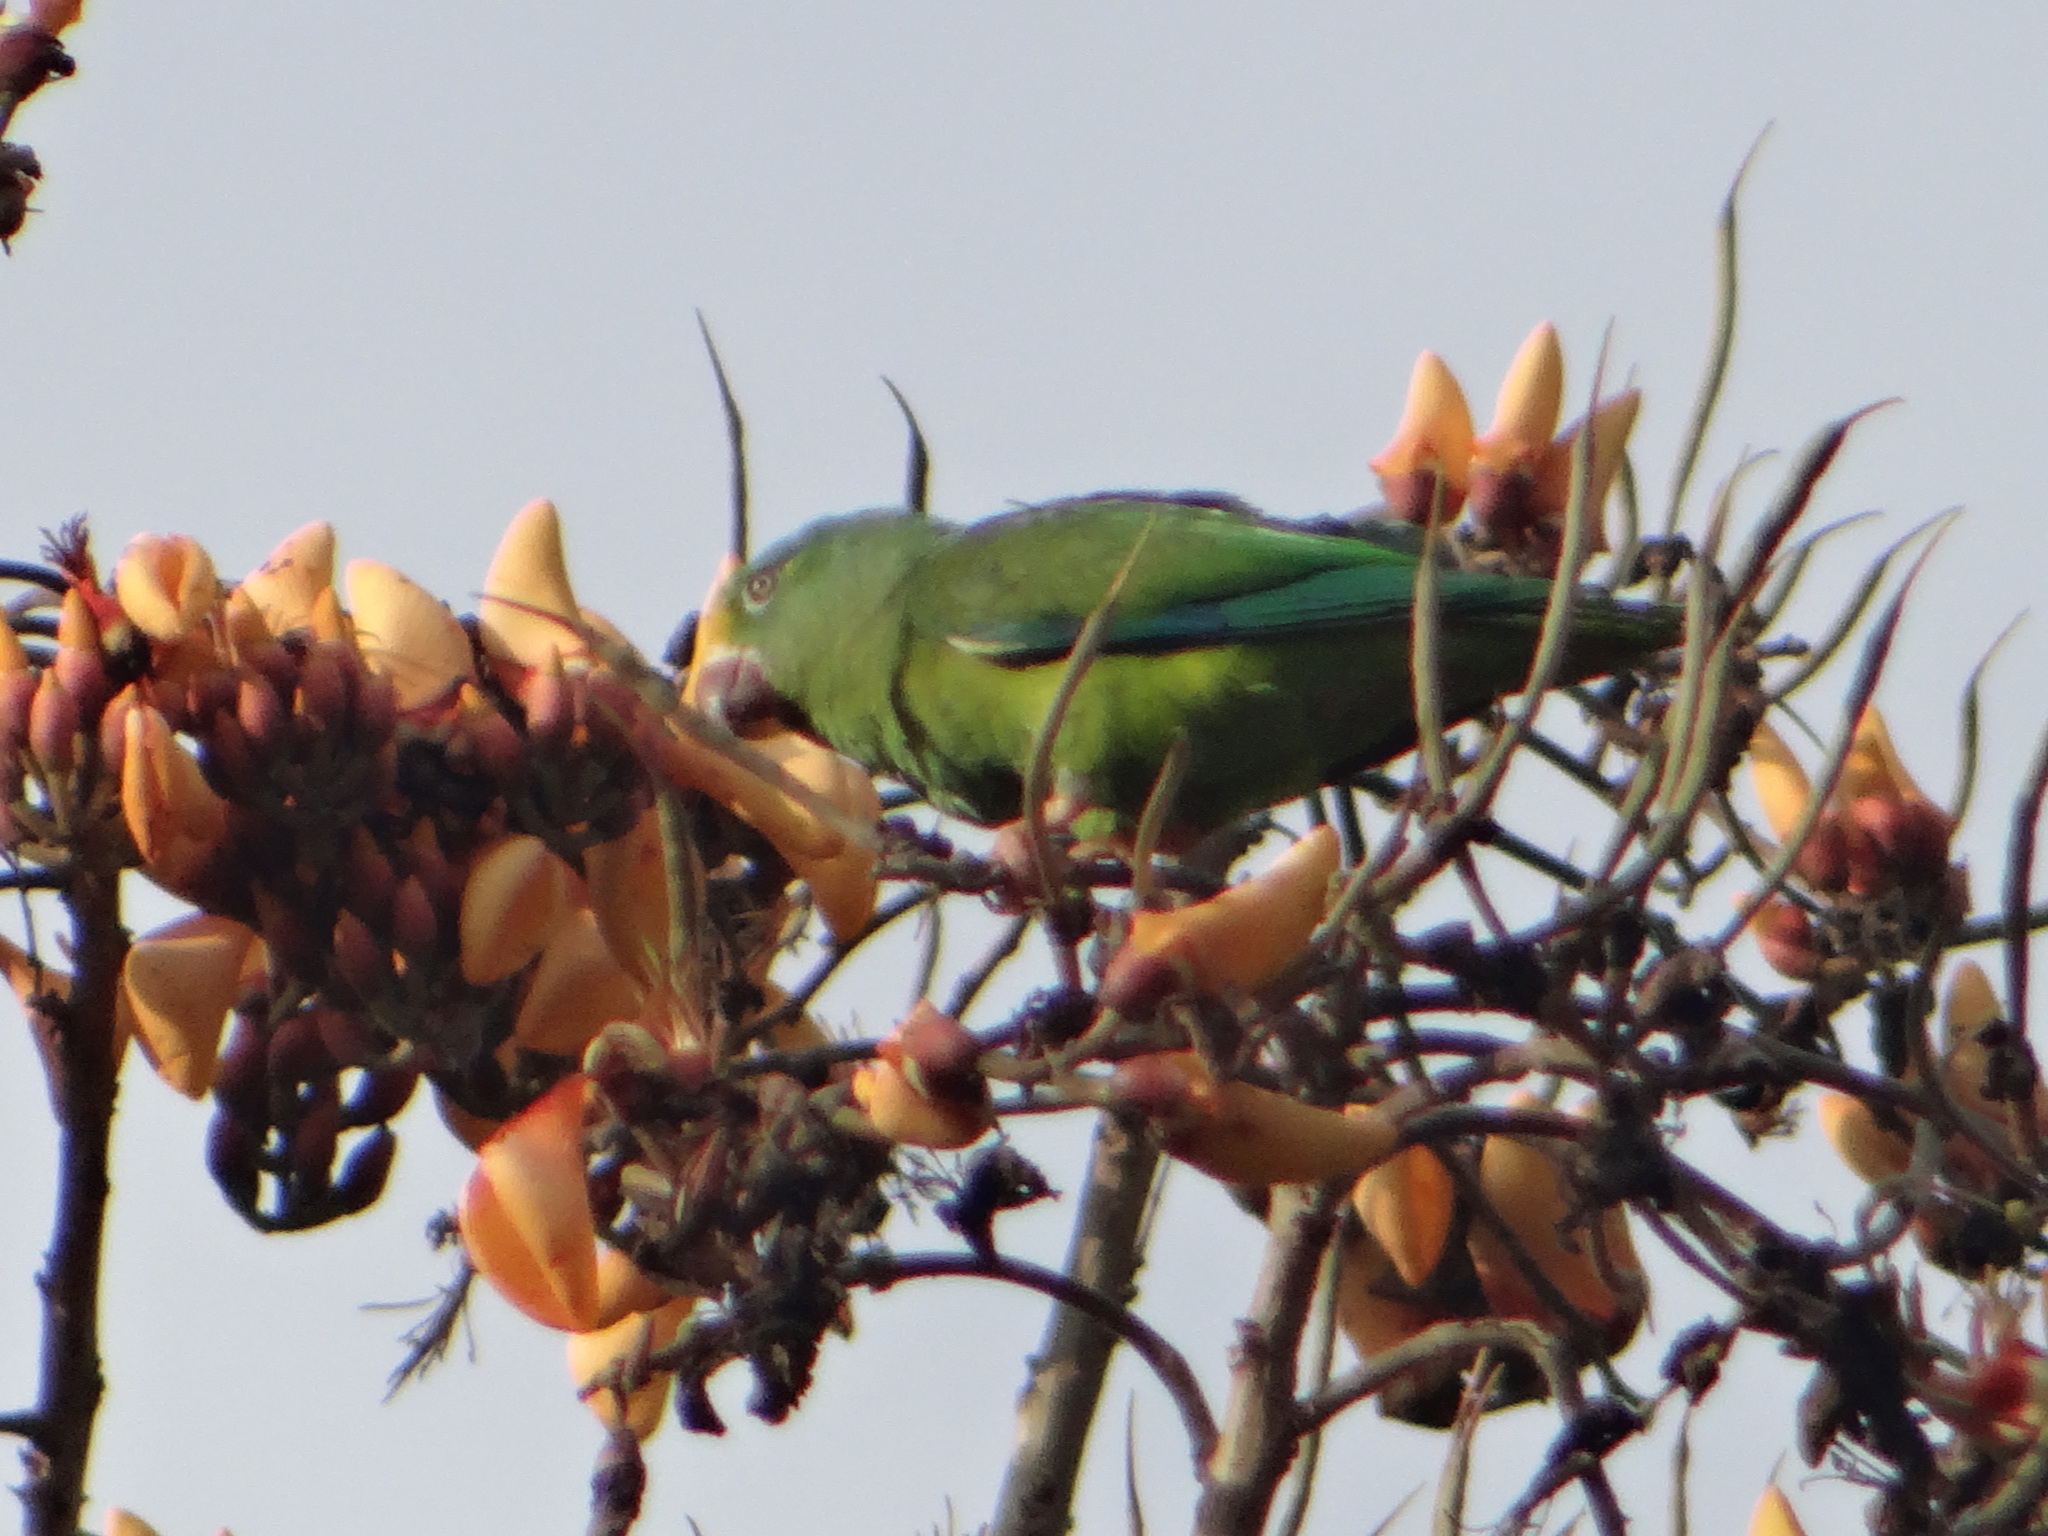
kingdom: Animalia
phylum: Chordata
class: Aves
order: Psittaciformes
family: Psittacidae
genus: Brotogeris
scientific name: Brotogeris sanctithomae
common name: Tui parakeet
